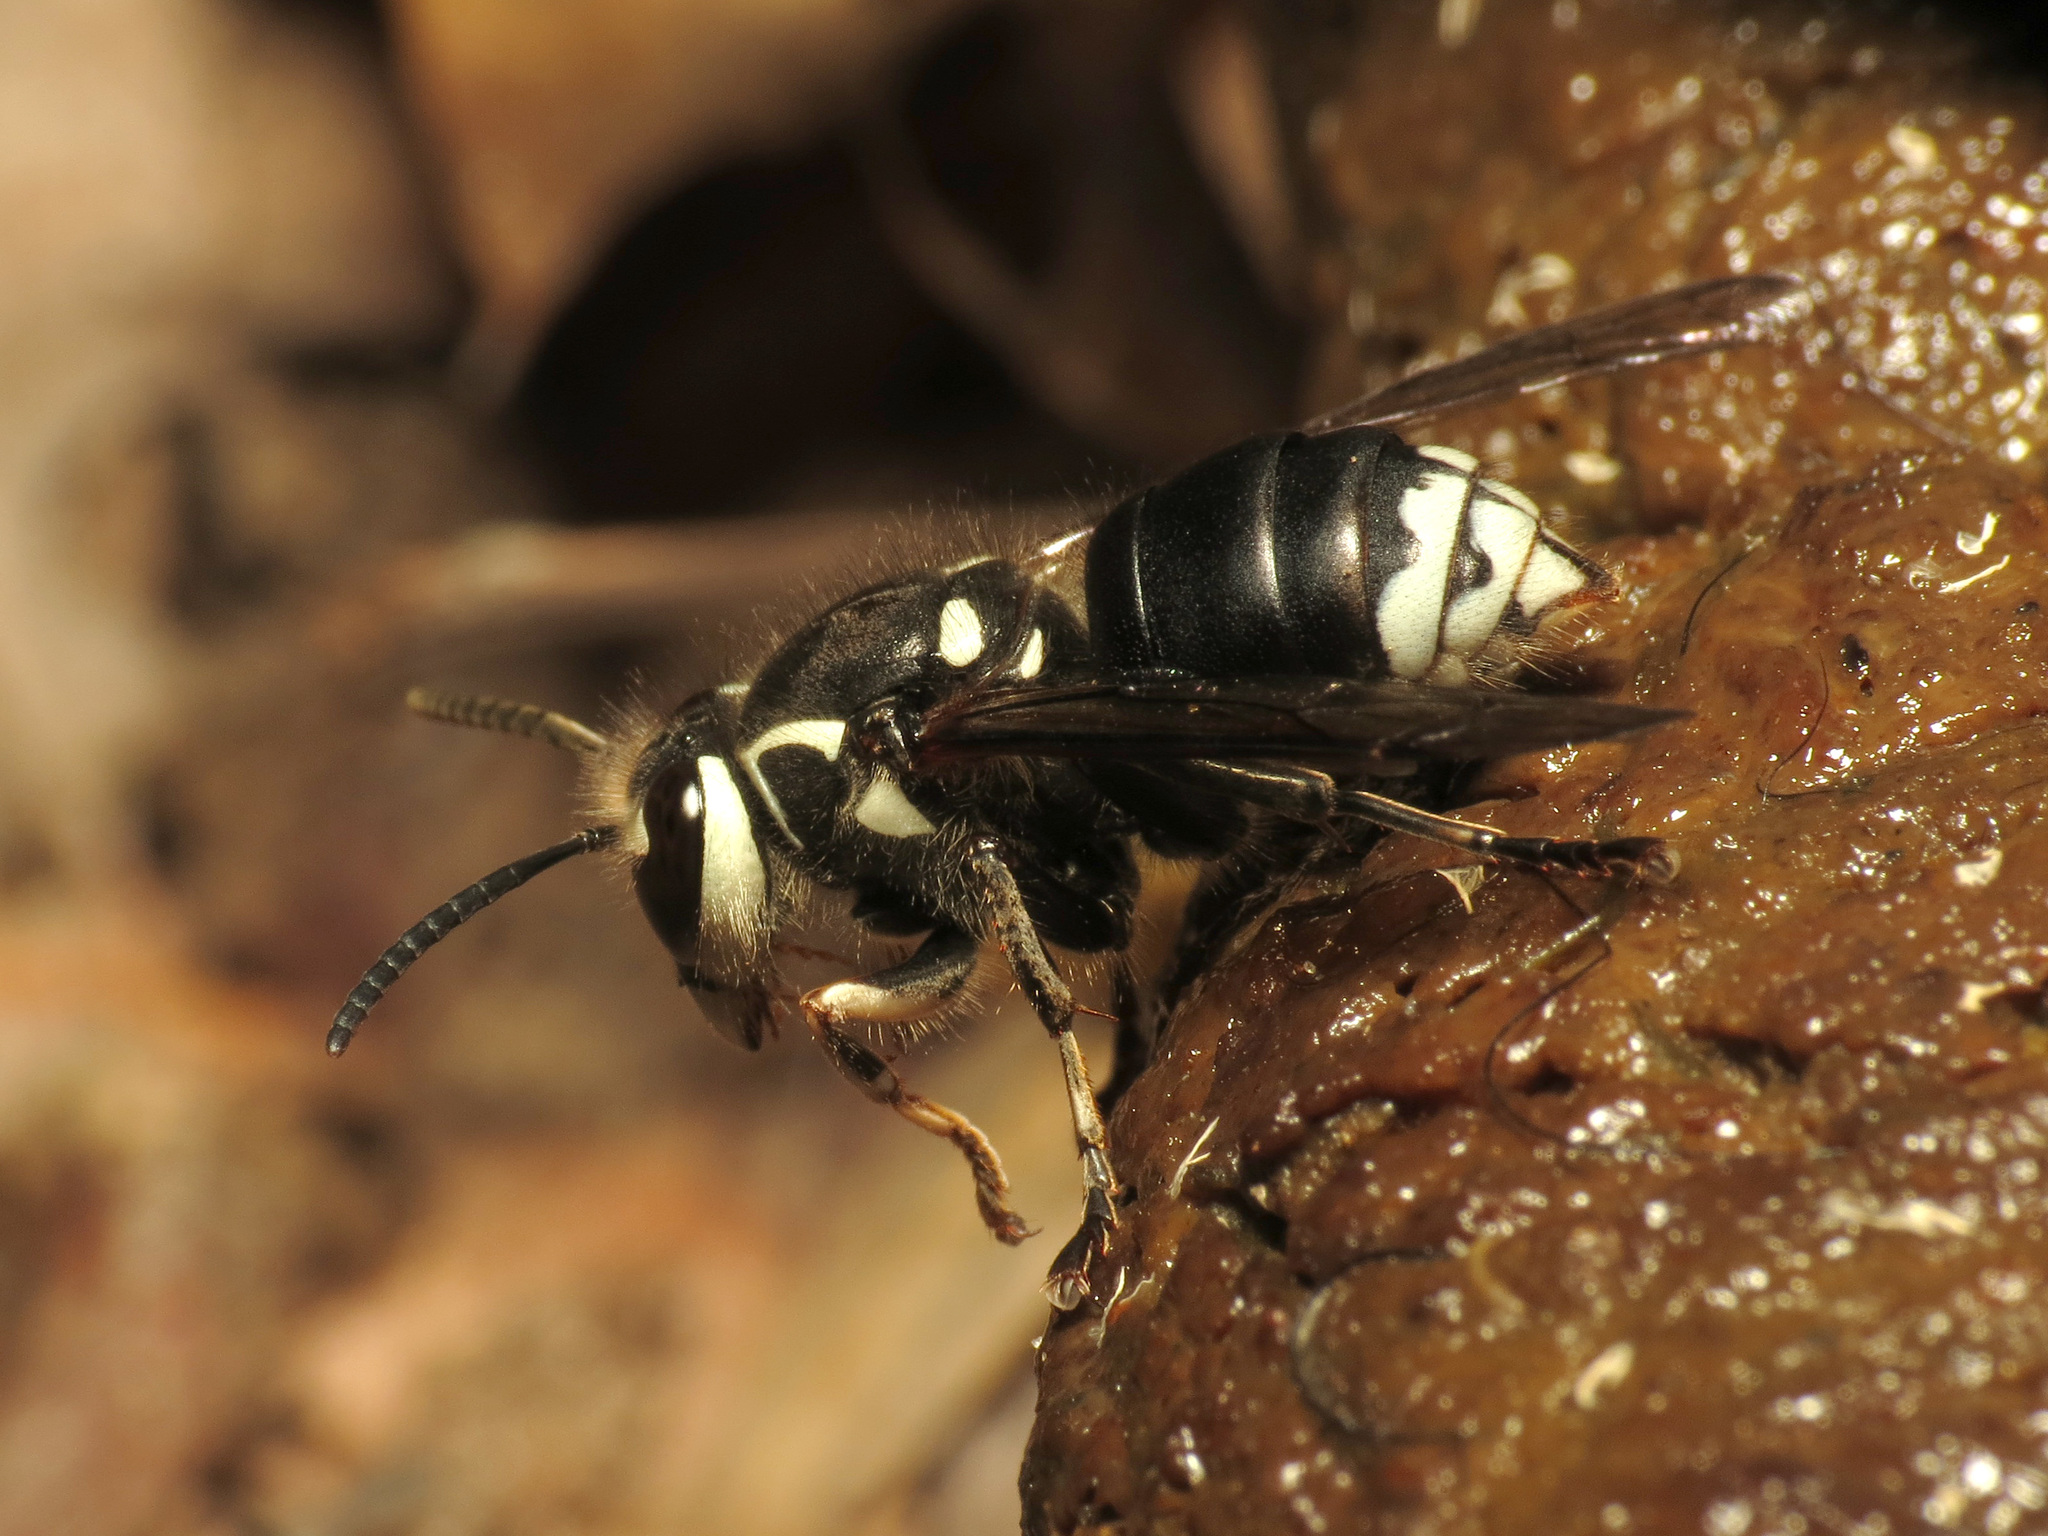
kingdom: Animalia
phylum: Arthropoda
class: Insecta
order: Hymenoptera
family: Vespidae
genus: Dolichovespula
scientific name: Dolichovespula maculata
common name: Bald-faced hornet
